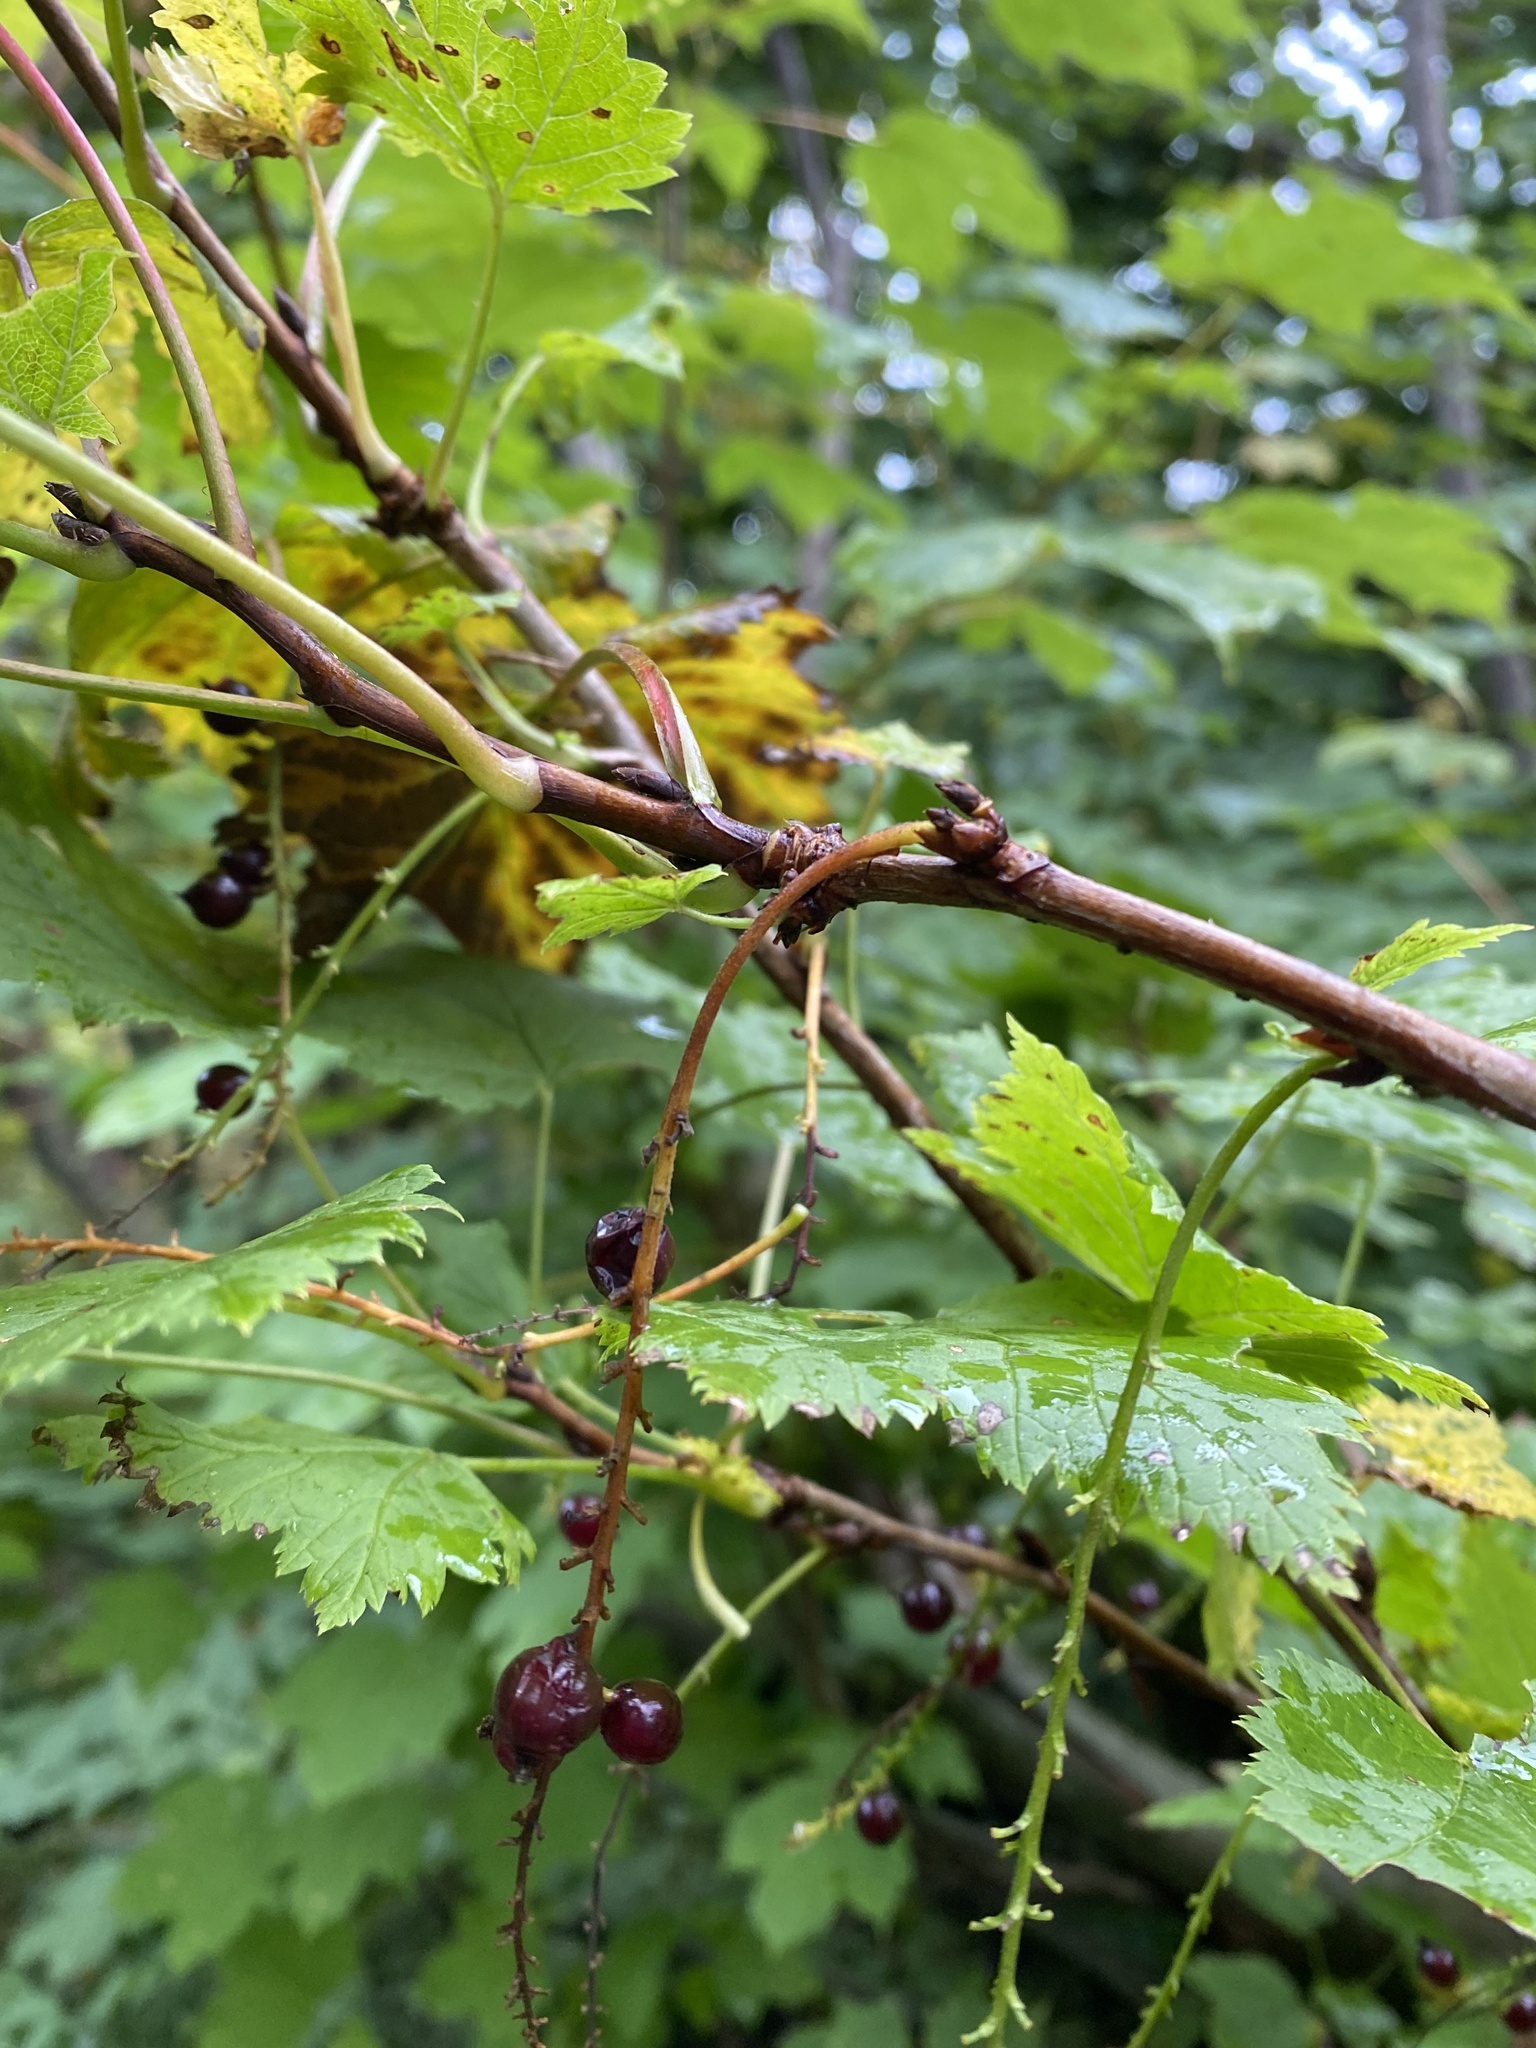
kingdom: Plantae
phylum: Tracheophyta
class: Magnoliopsida
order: Saxifragales
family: Grossulariaceae
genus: Ribes
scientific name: Ribes biebersteinii
